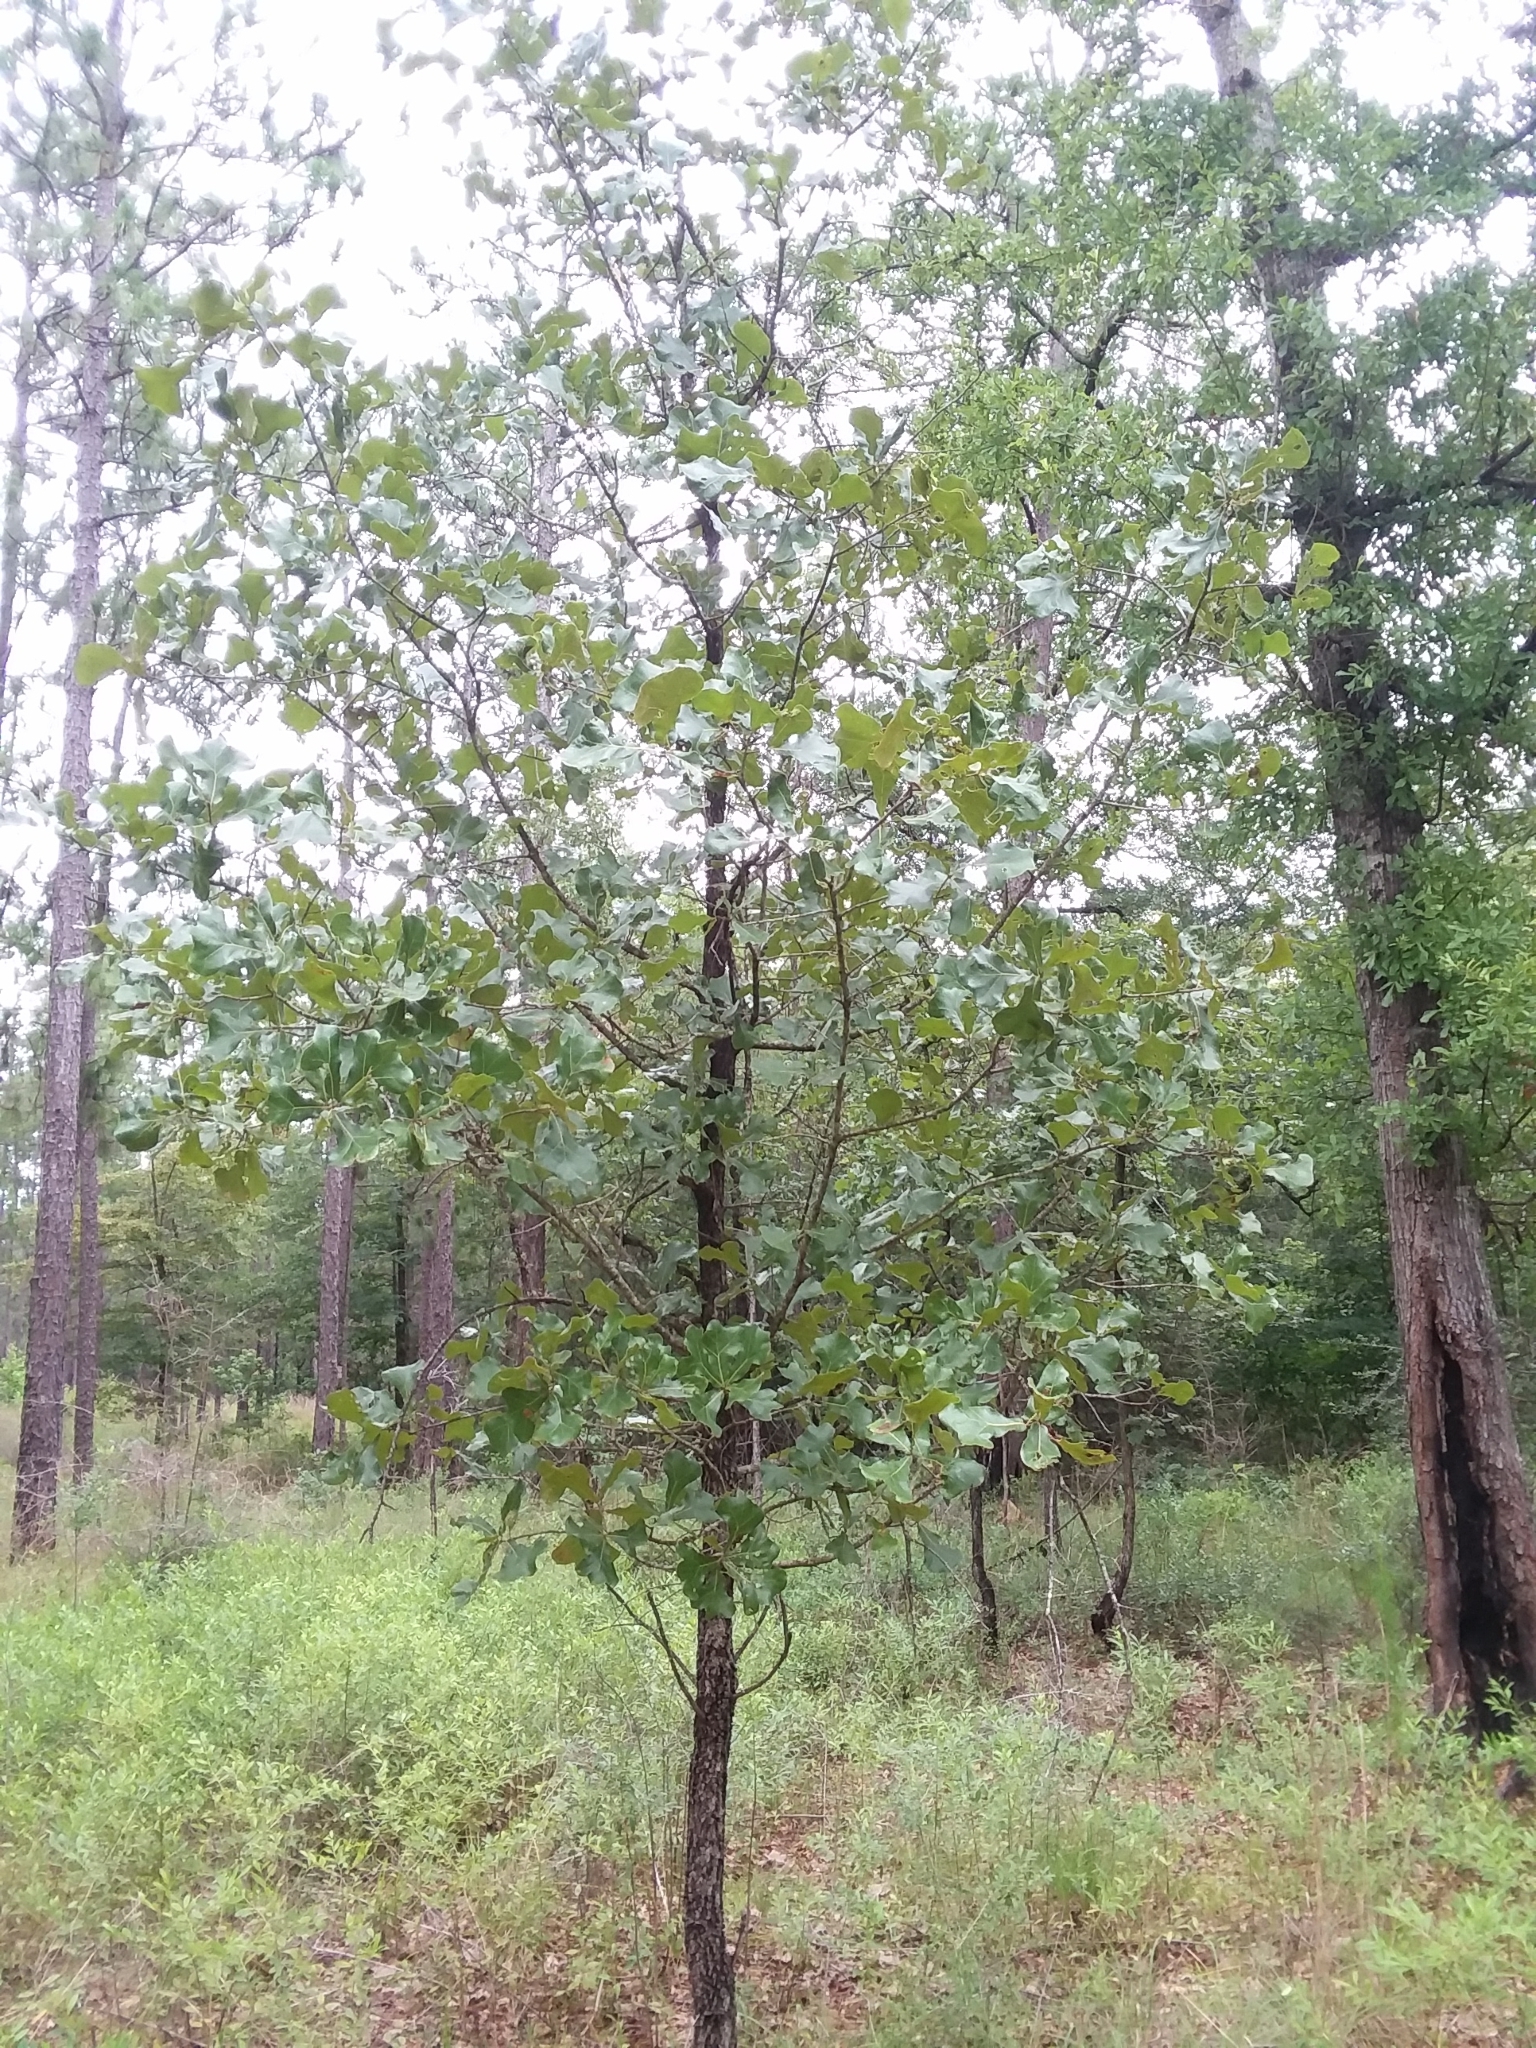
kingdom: Plantae
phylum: Tracheophyta
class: Magnoliopsida
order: Fagales
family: Fagaceae
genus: Quercus
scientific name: Quercus marilandica
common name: Blackjack oak
